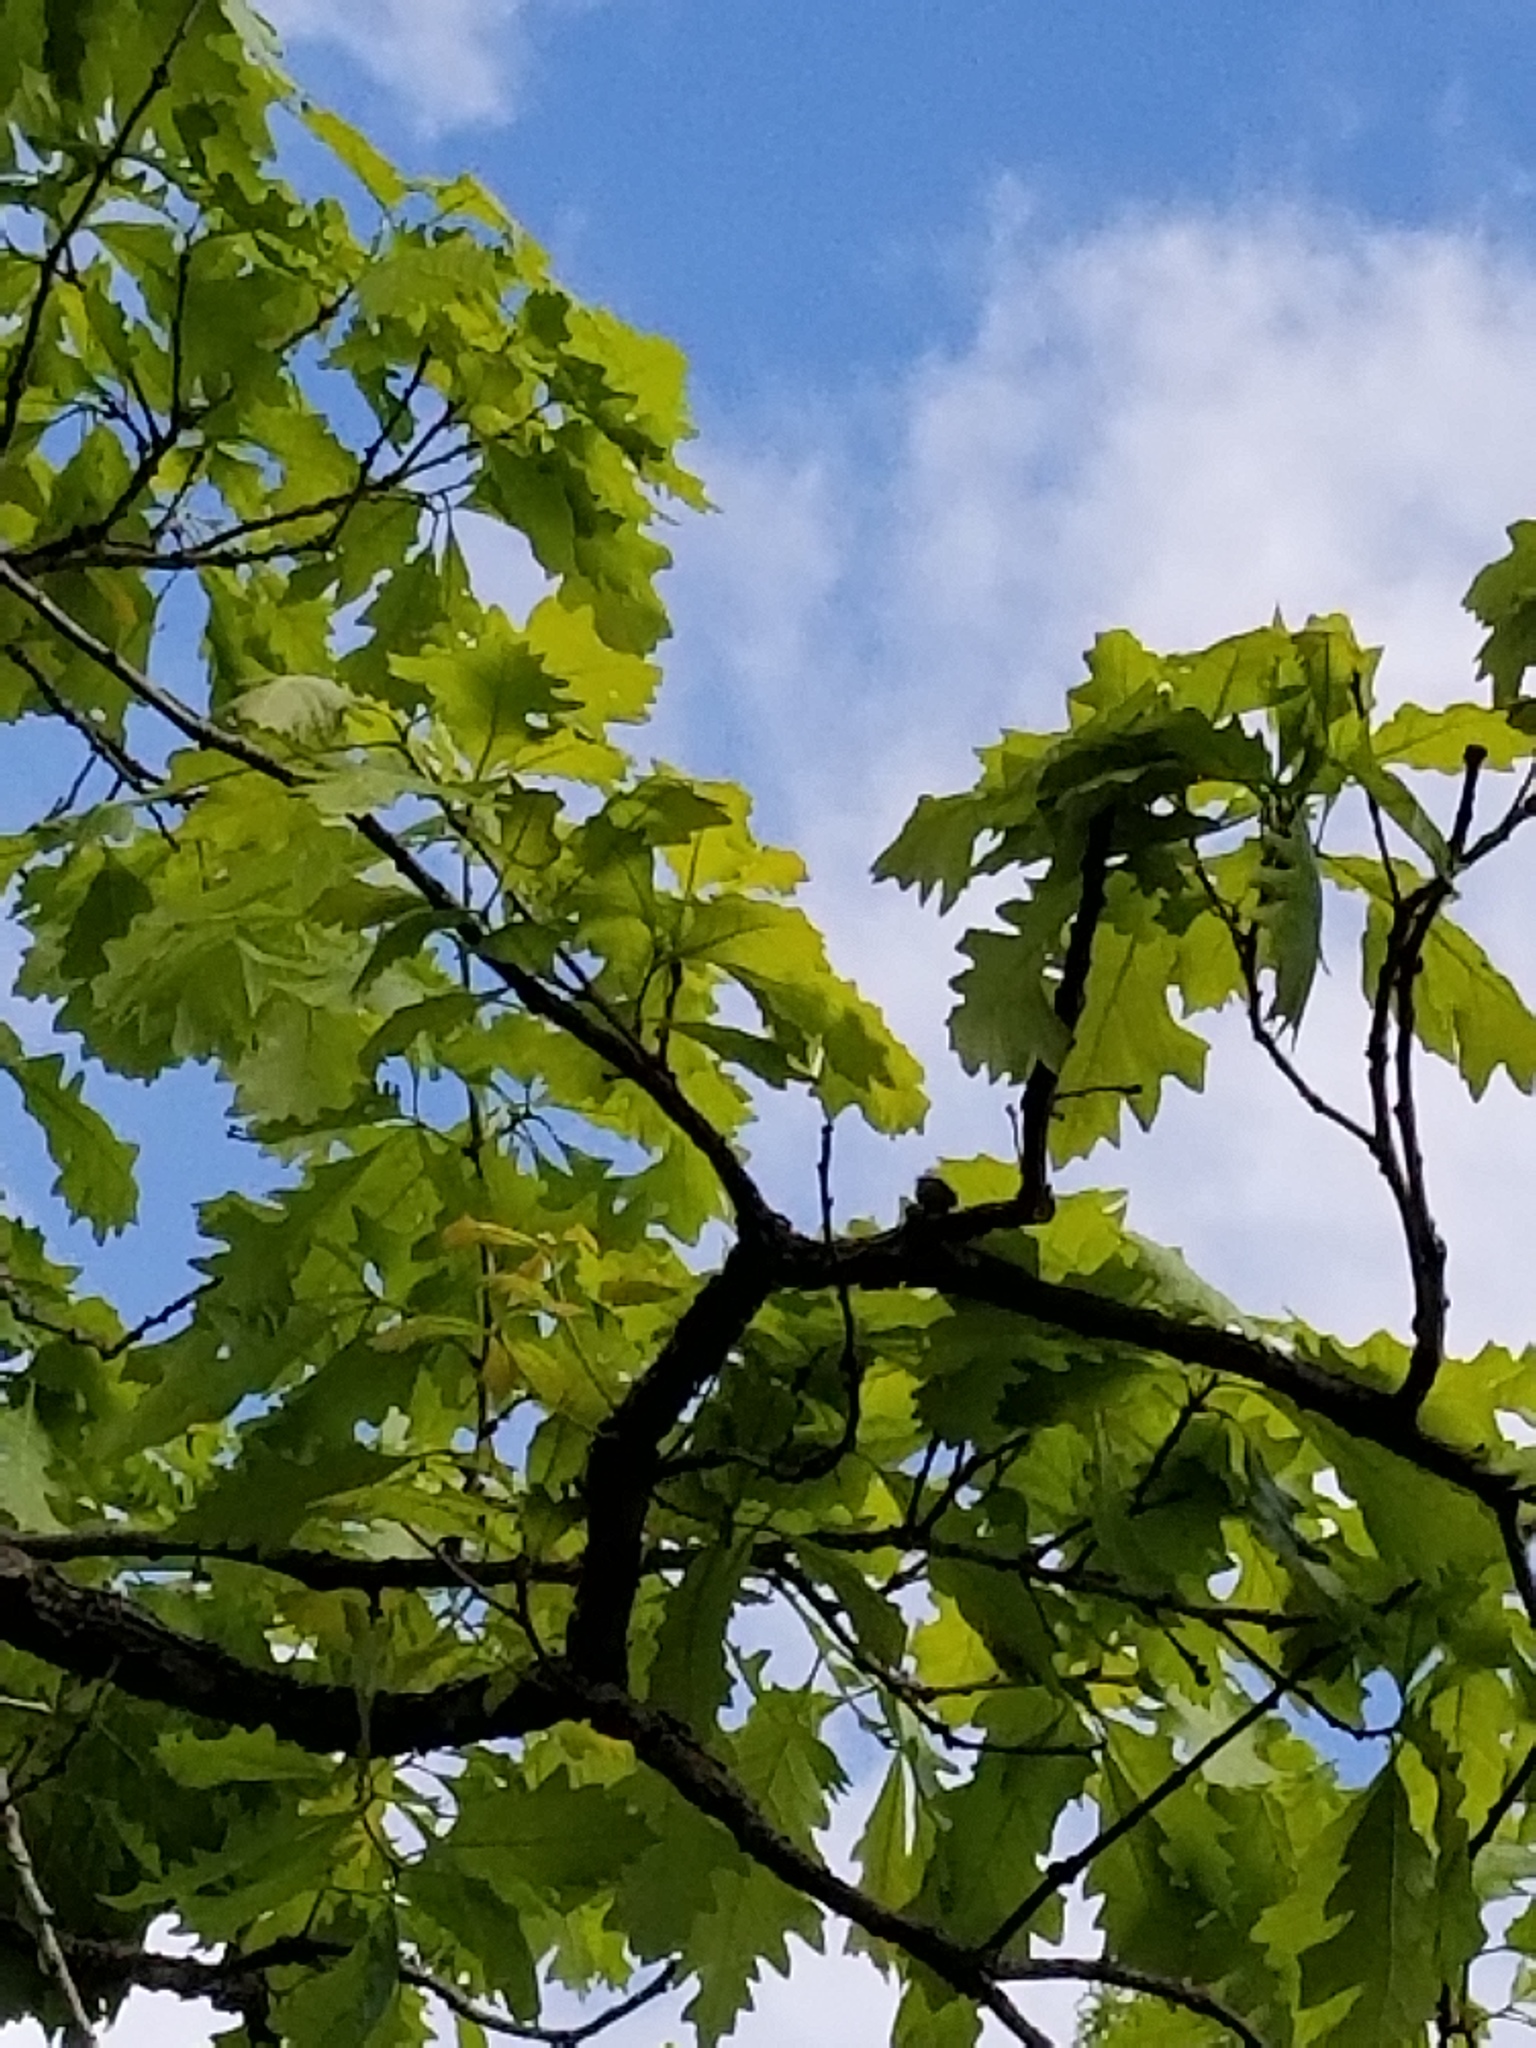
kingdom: Plantae
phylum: Tracheophyta
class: Magnoliopsida
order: Fagales
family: Fagaceae
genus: Quercus
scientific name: Quercus macrocarpa
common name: Bur oak
